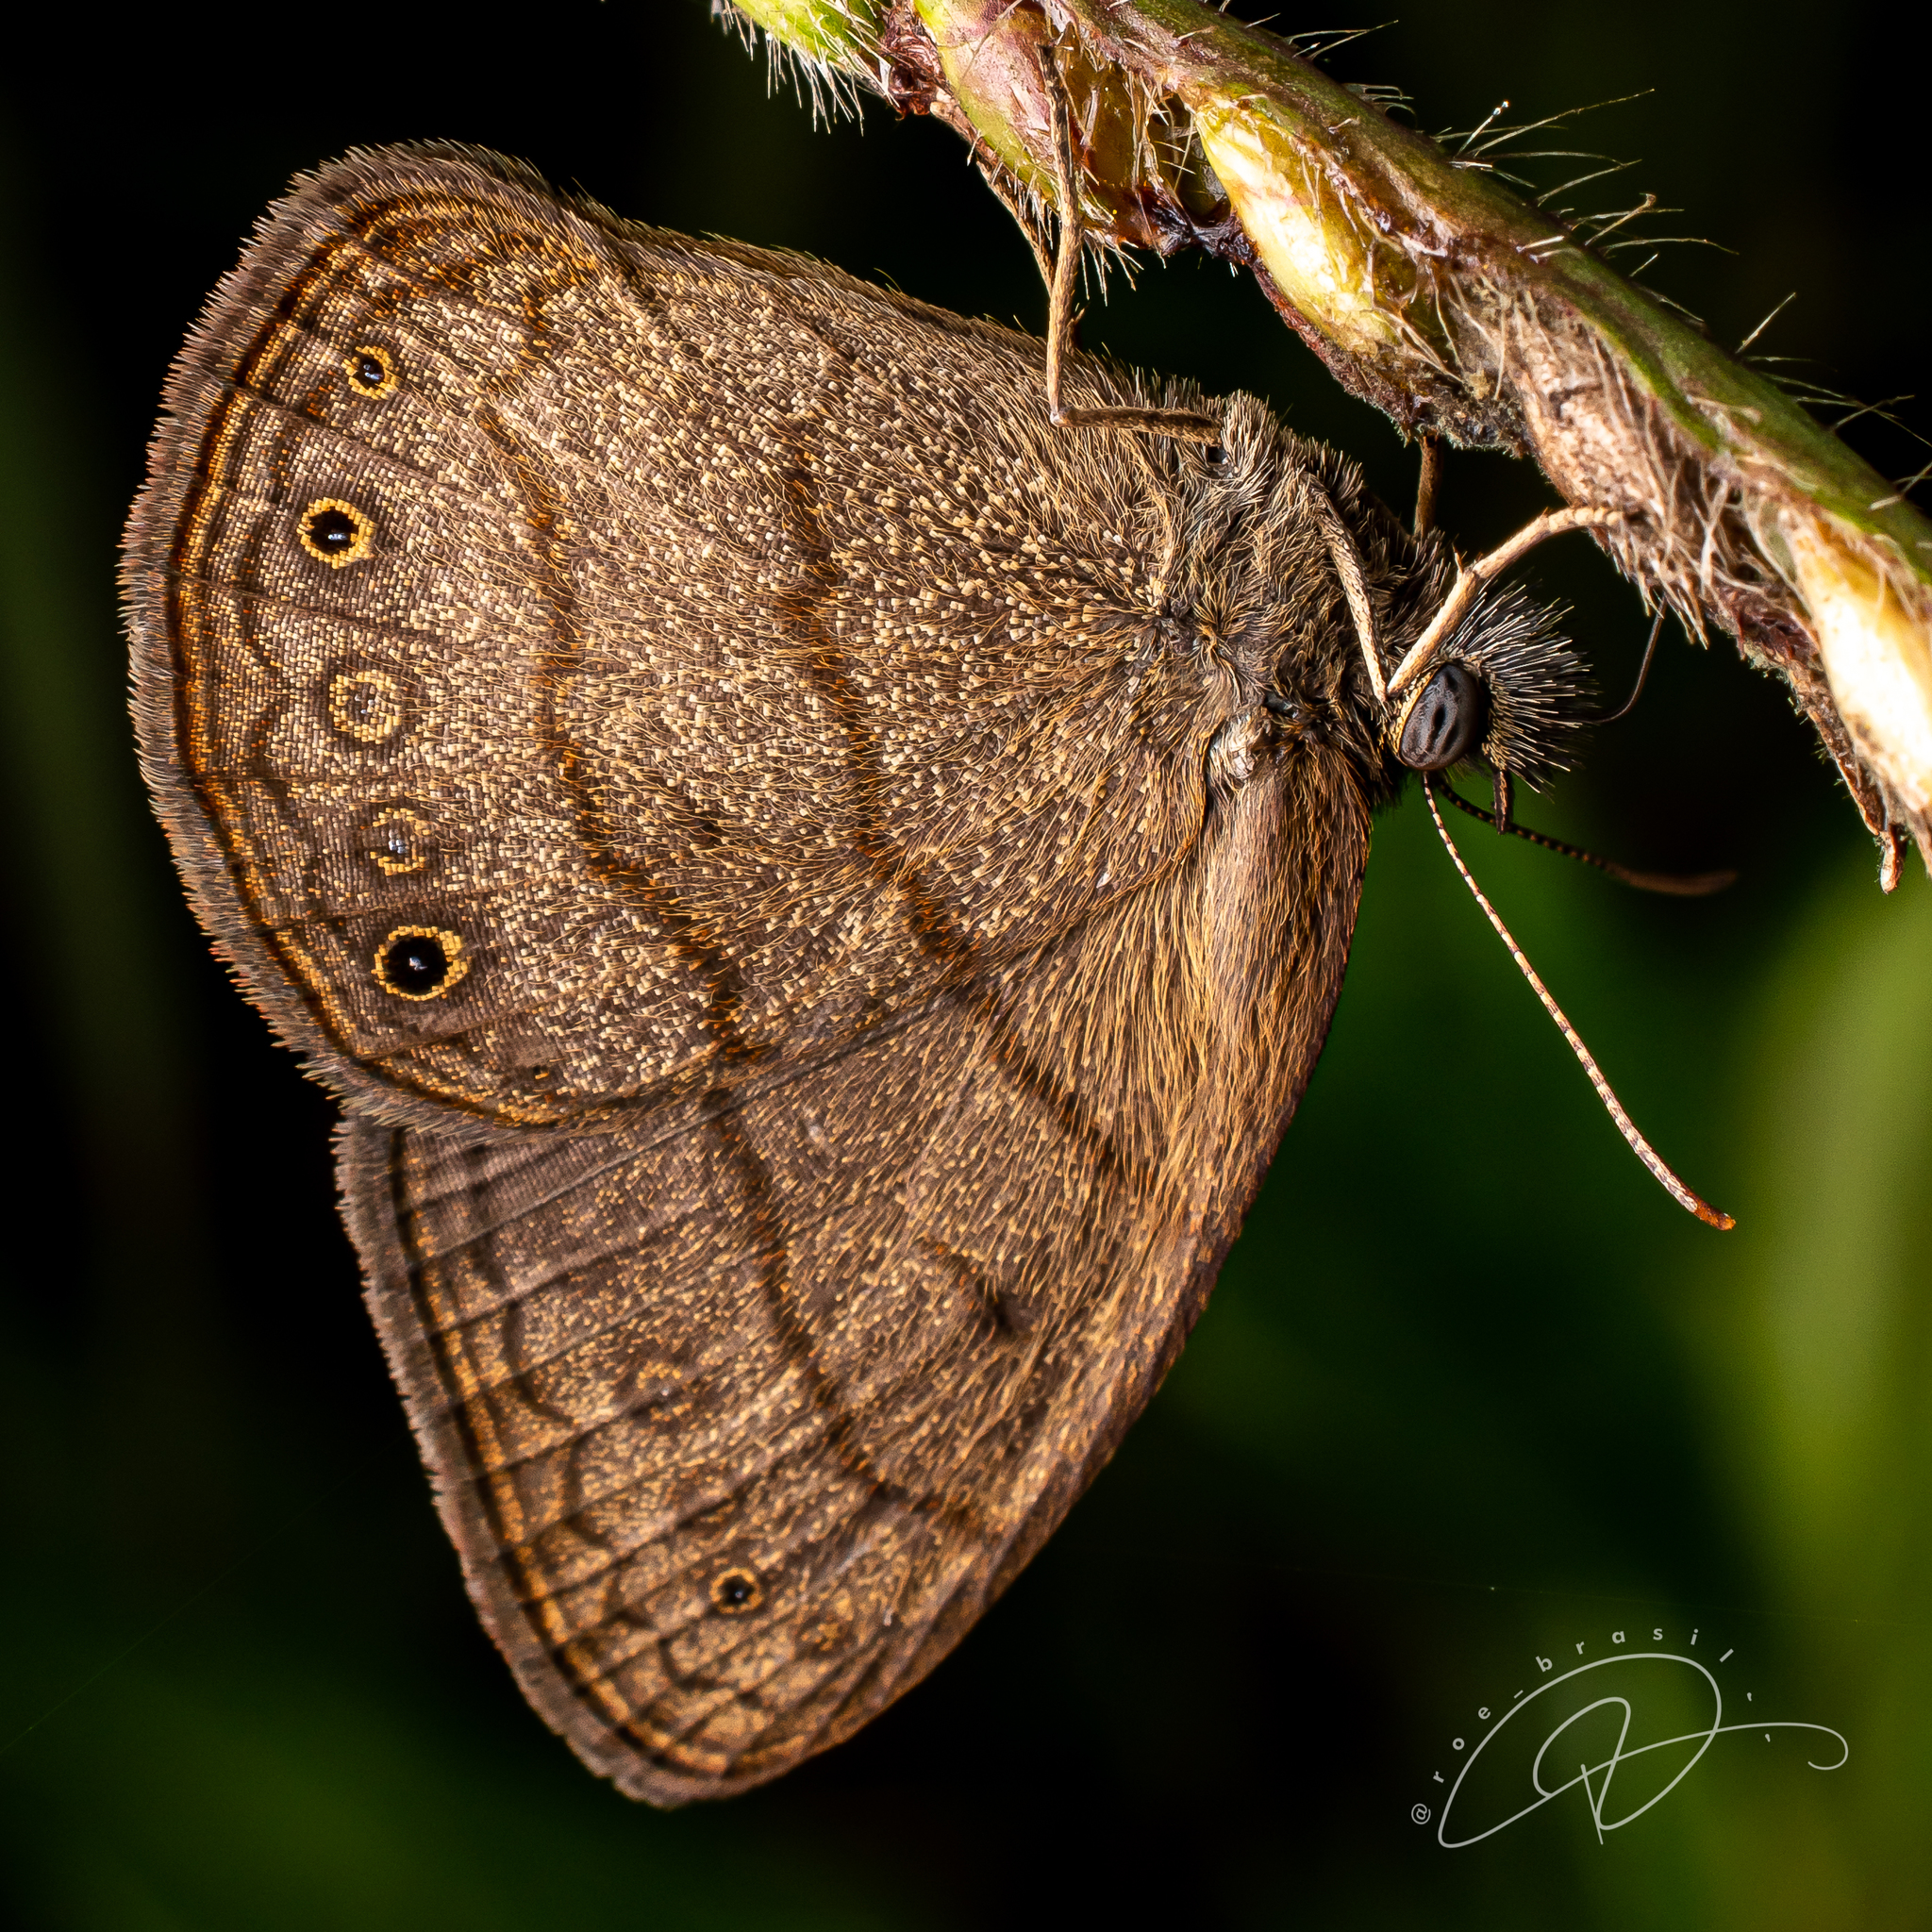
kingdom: Animalia
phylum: Arthropoda
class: Insecta
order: Lepidoptera
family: Nymphalidae
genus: Hermeuptychia
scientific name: Hermeuptychia hermes
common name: Hermes satyr
